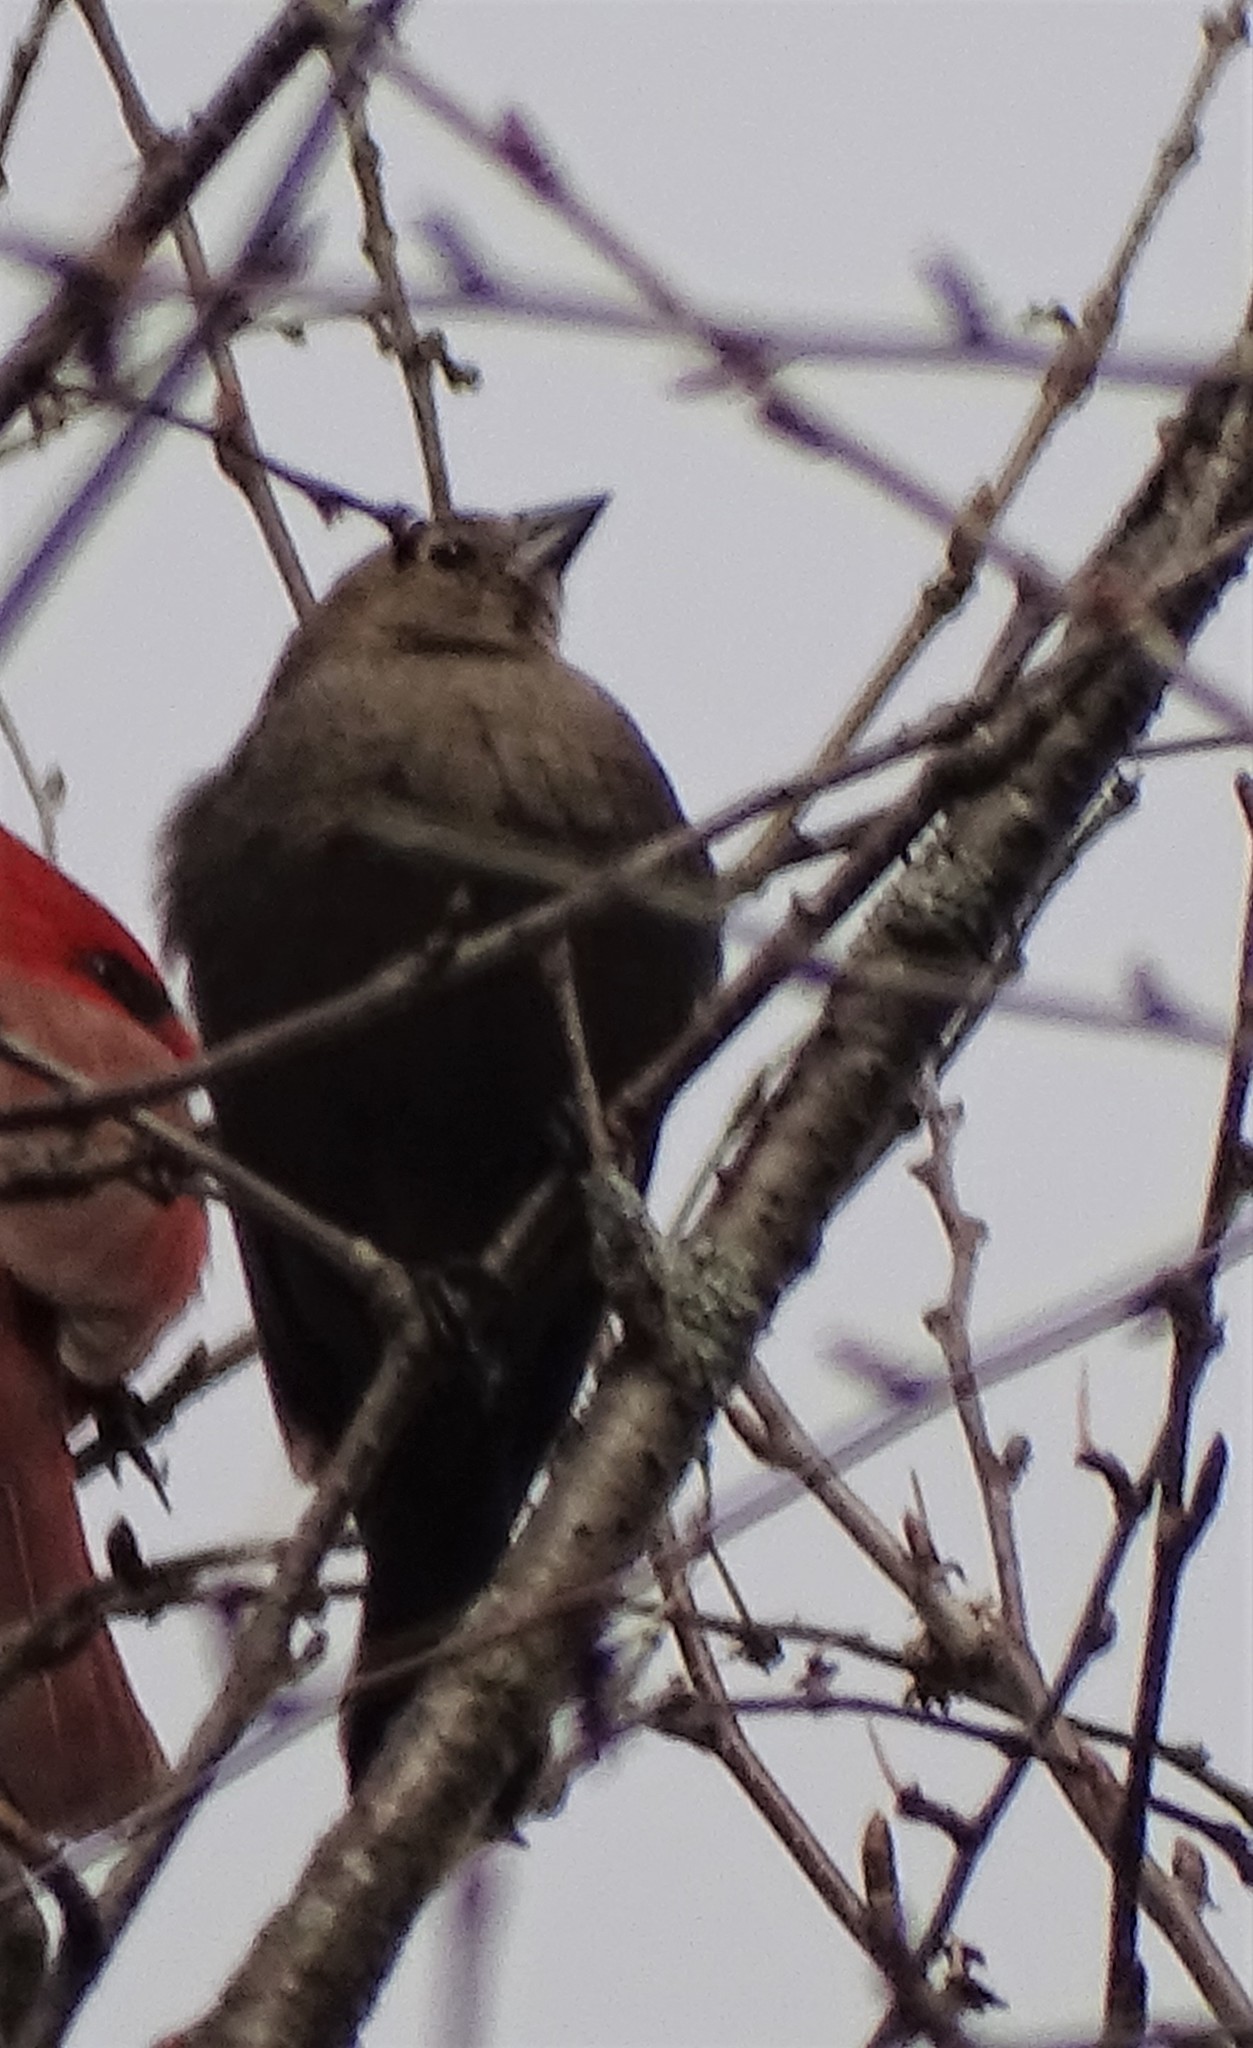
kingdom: Animalia
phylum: Chordata
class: Aves
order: Passeriformes
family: Icteridae
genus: Molothrus
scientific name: Molothrus ater
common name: Brown-headed cowbird
